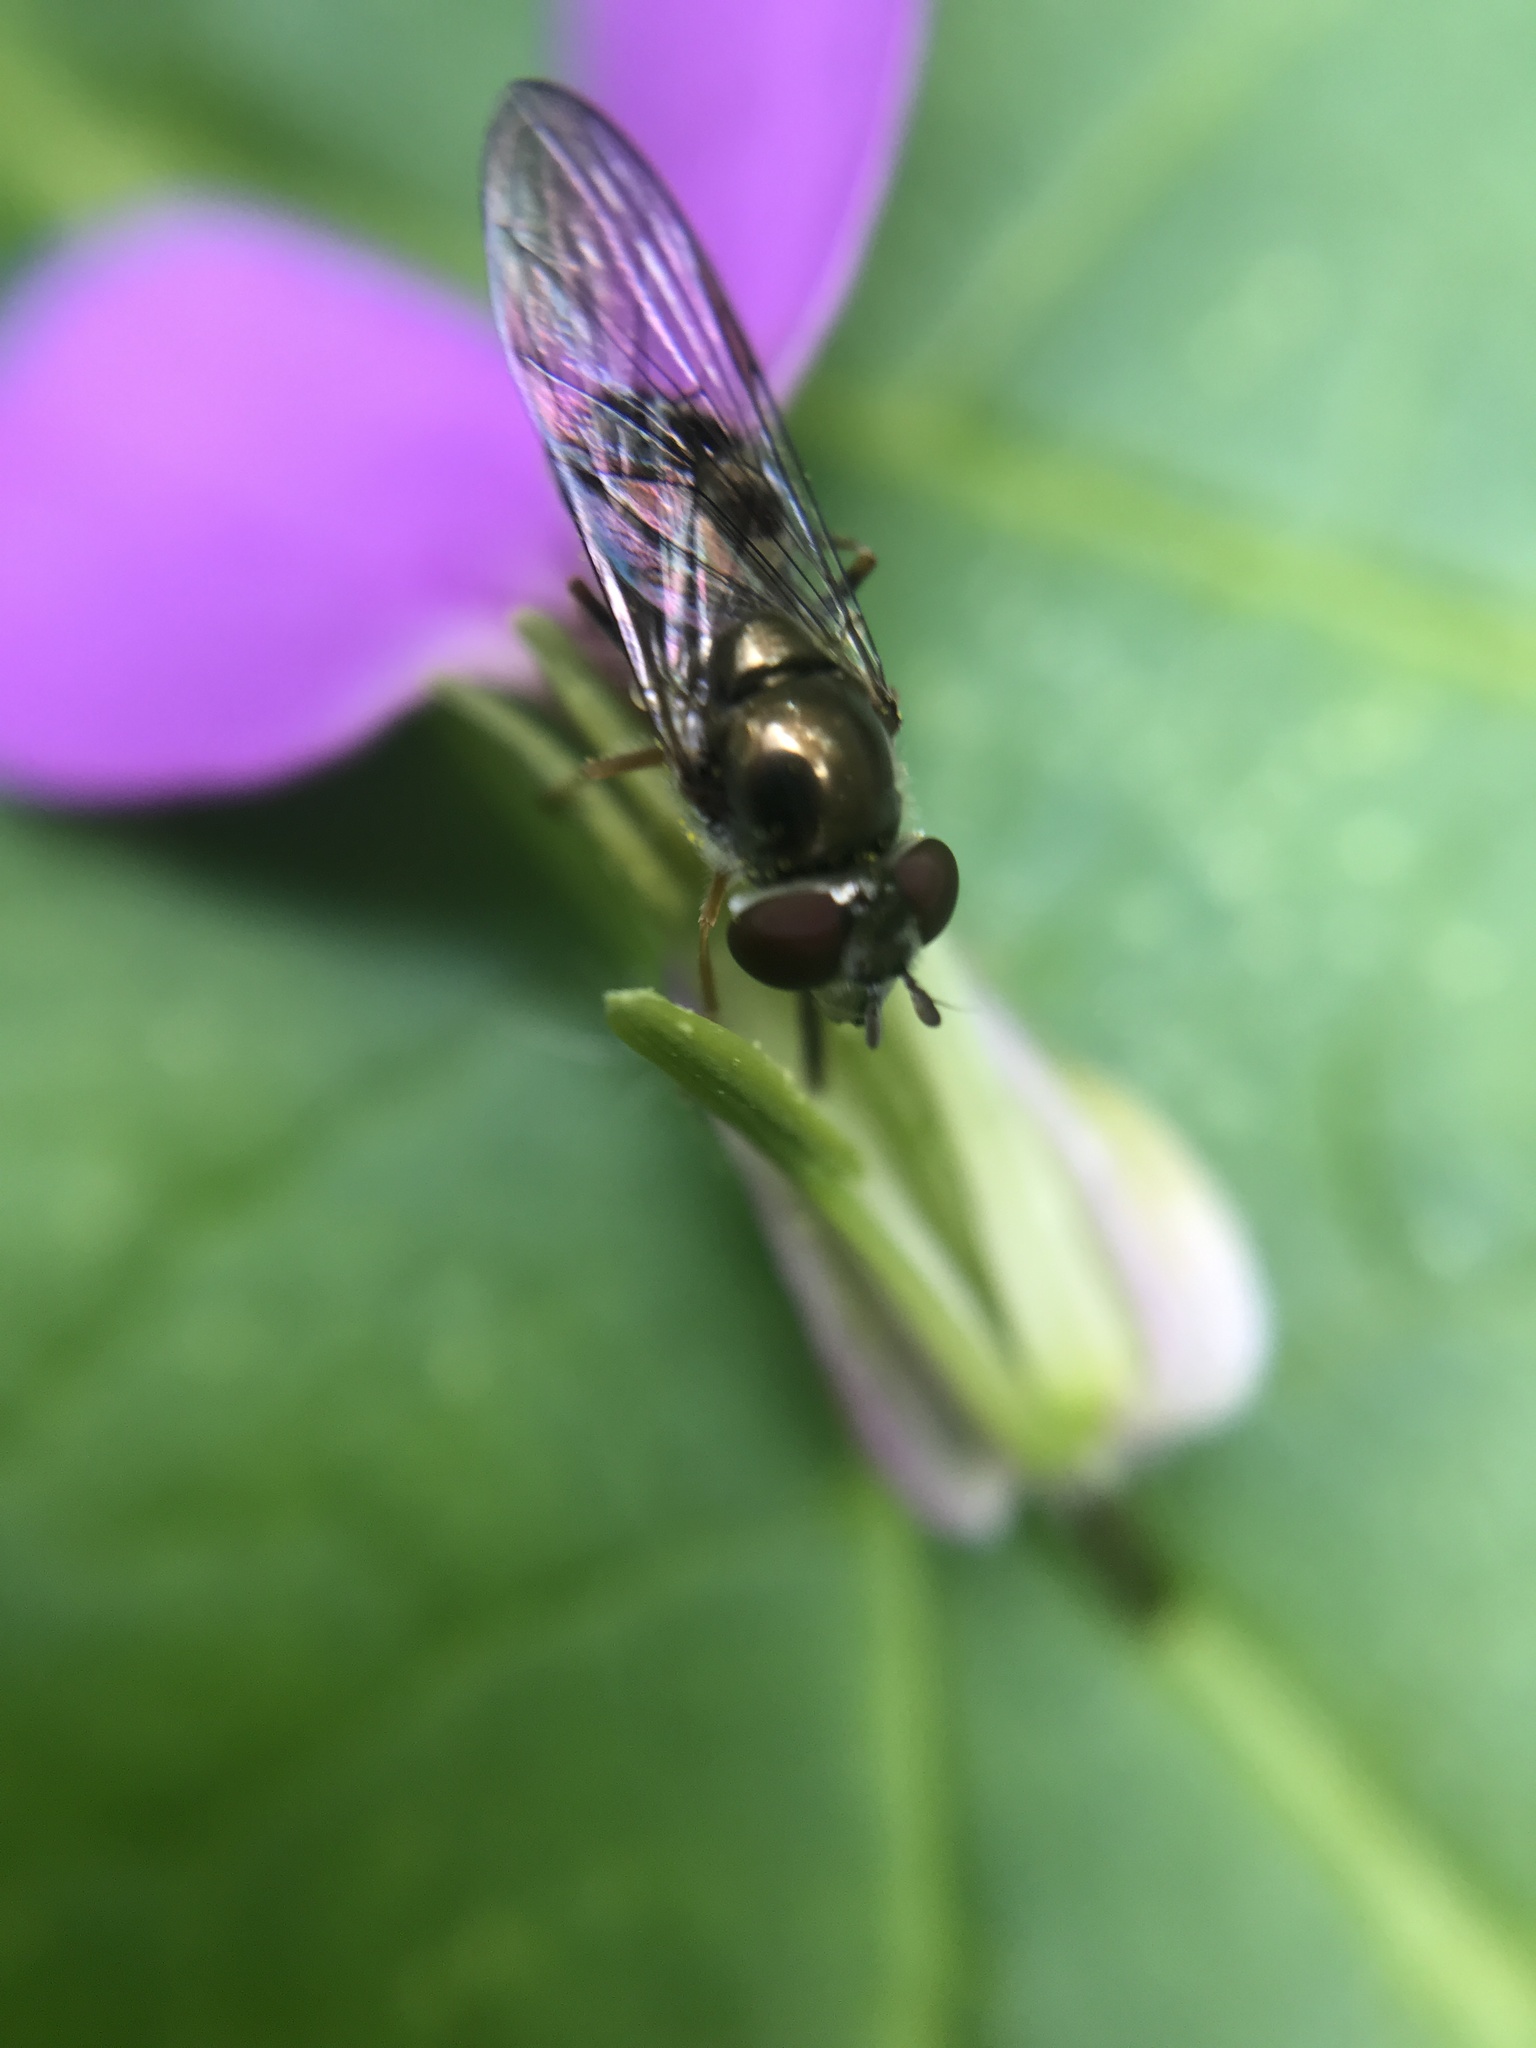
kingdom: Animalia
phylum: Arthropoda
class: Insecta
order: Diptera
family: Syrphidae
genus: Platycheirus
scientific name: Platycheirus trichopus
